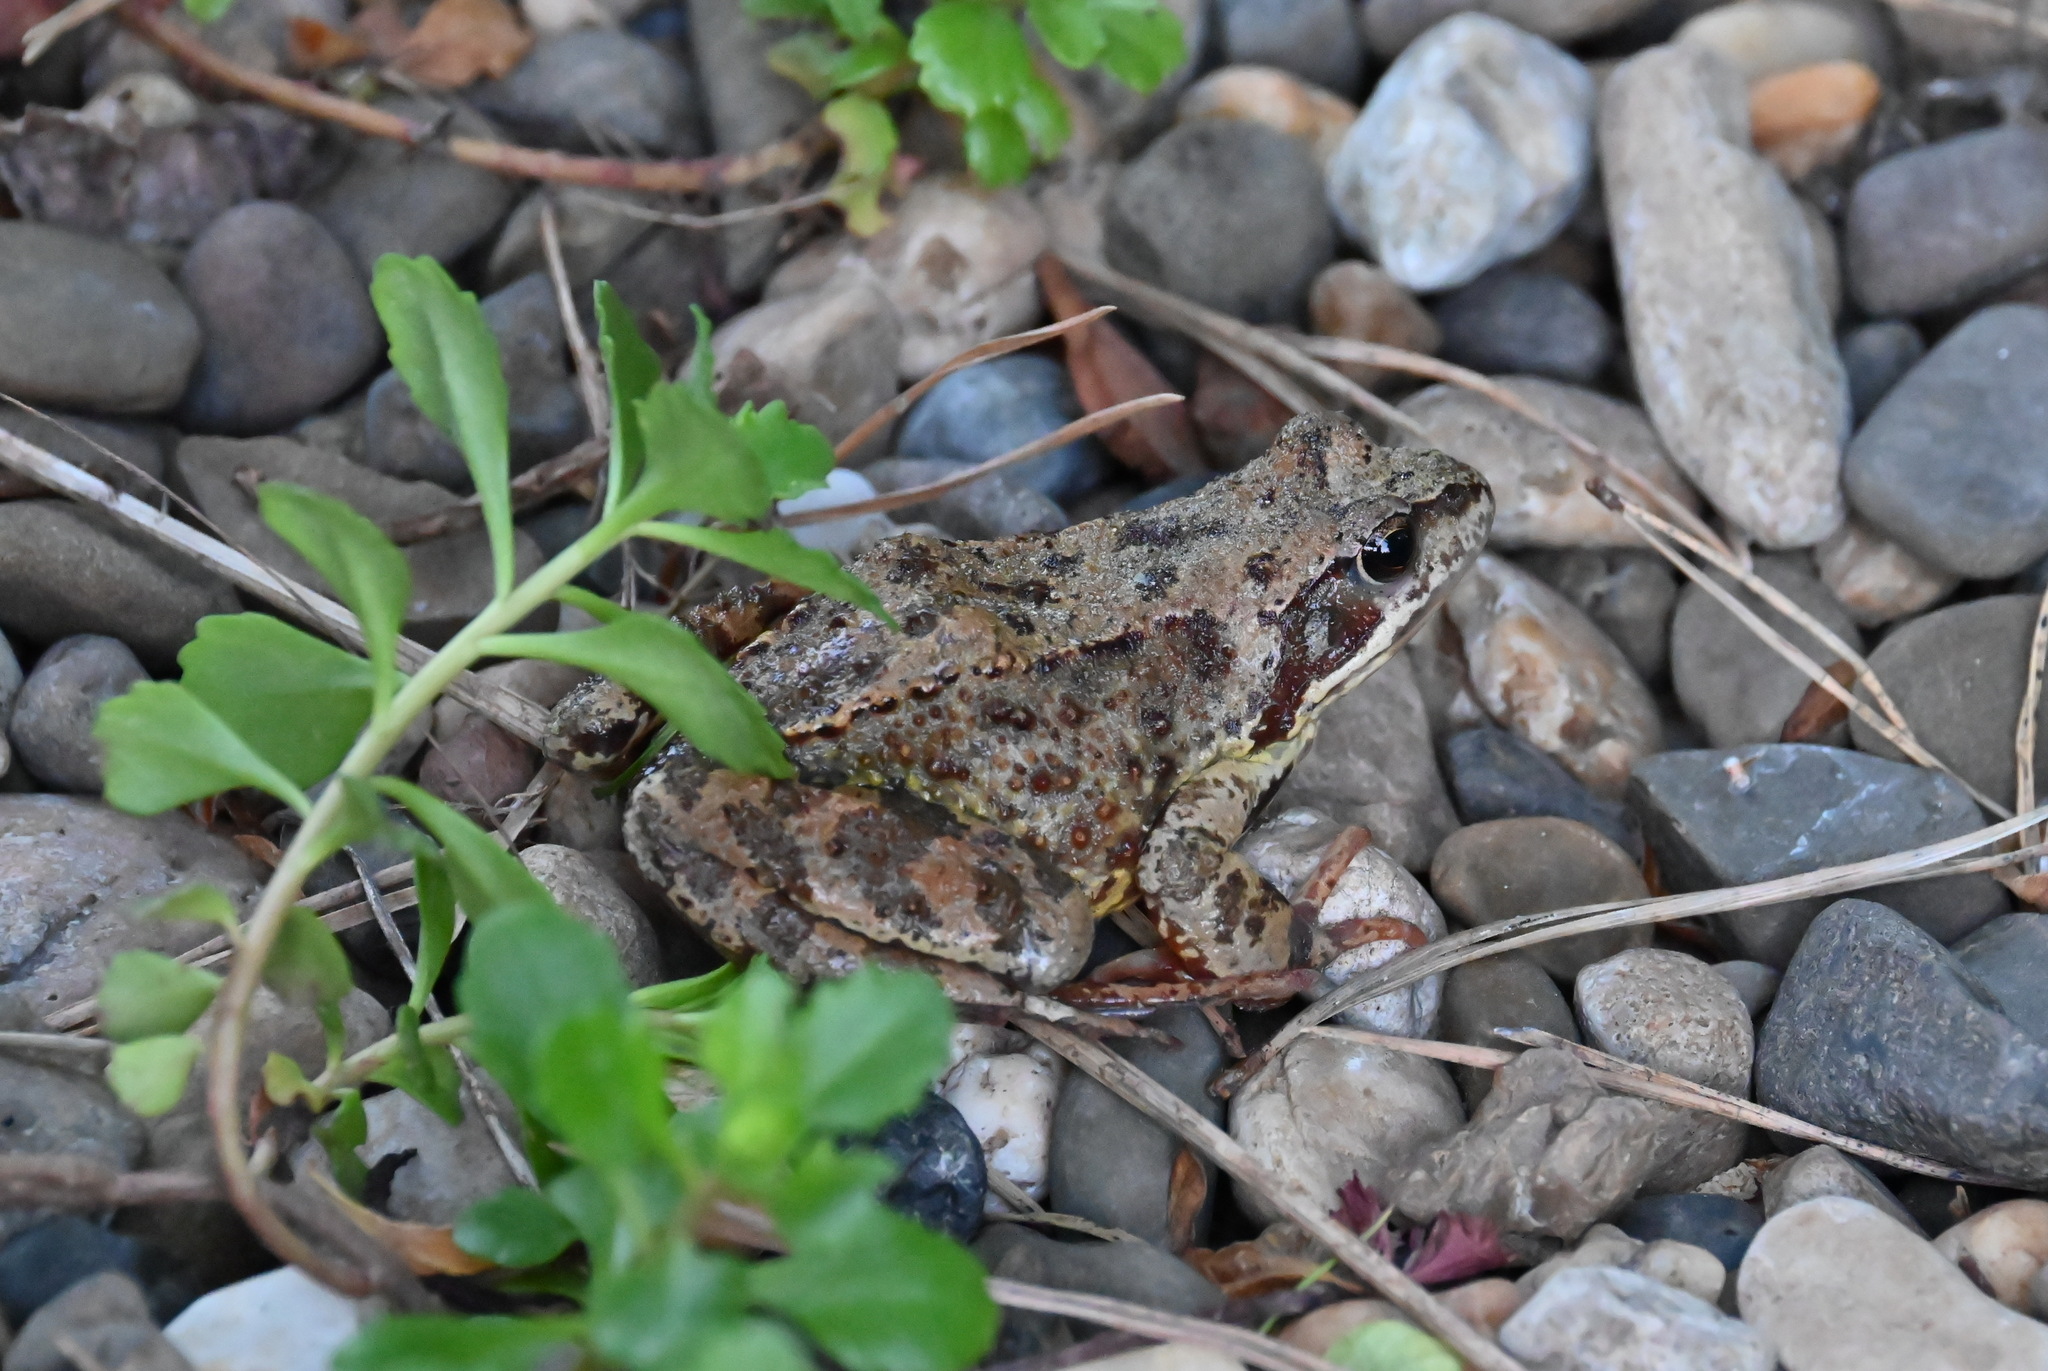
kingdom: Animalia
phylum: Chordata
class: Amphibia
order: Anura
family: Ranidae
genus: Rana
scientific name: Rana temporaria
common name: Common frog
